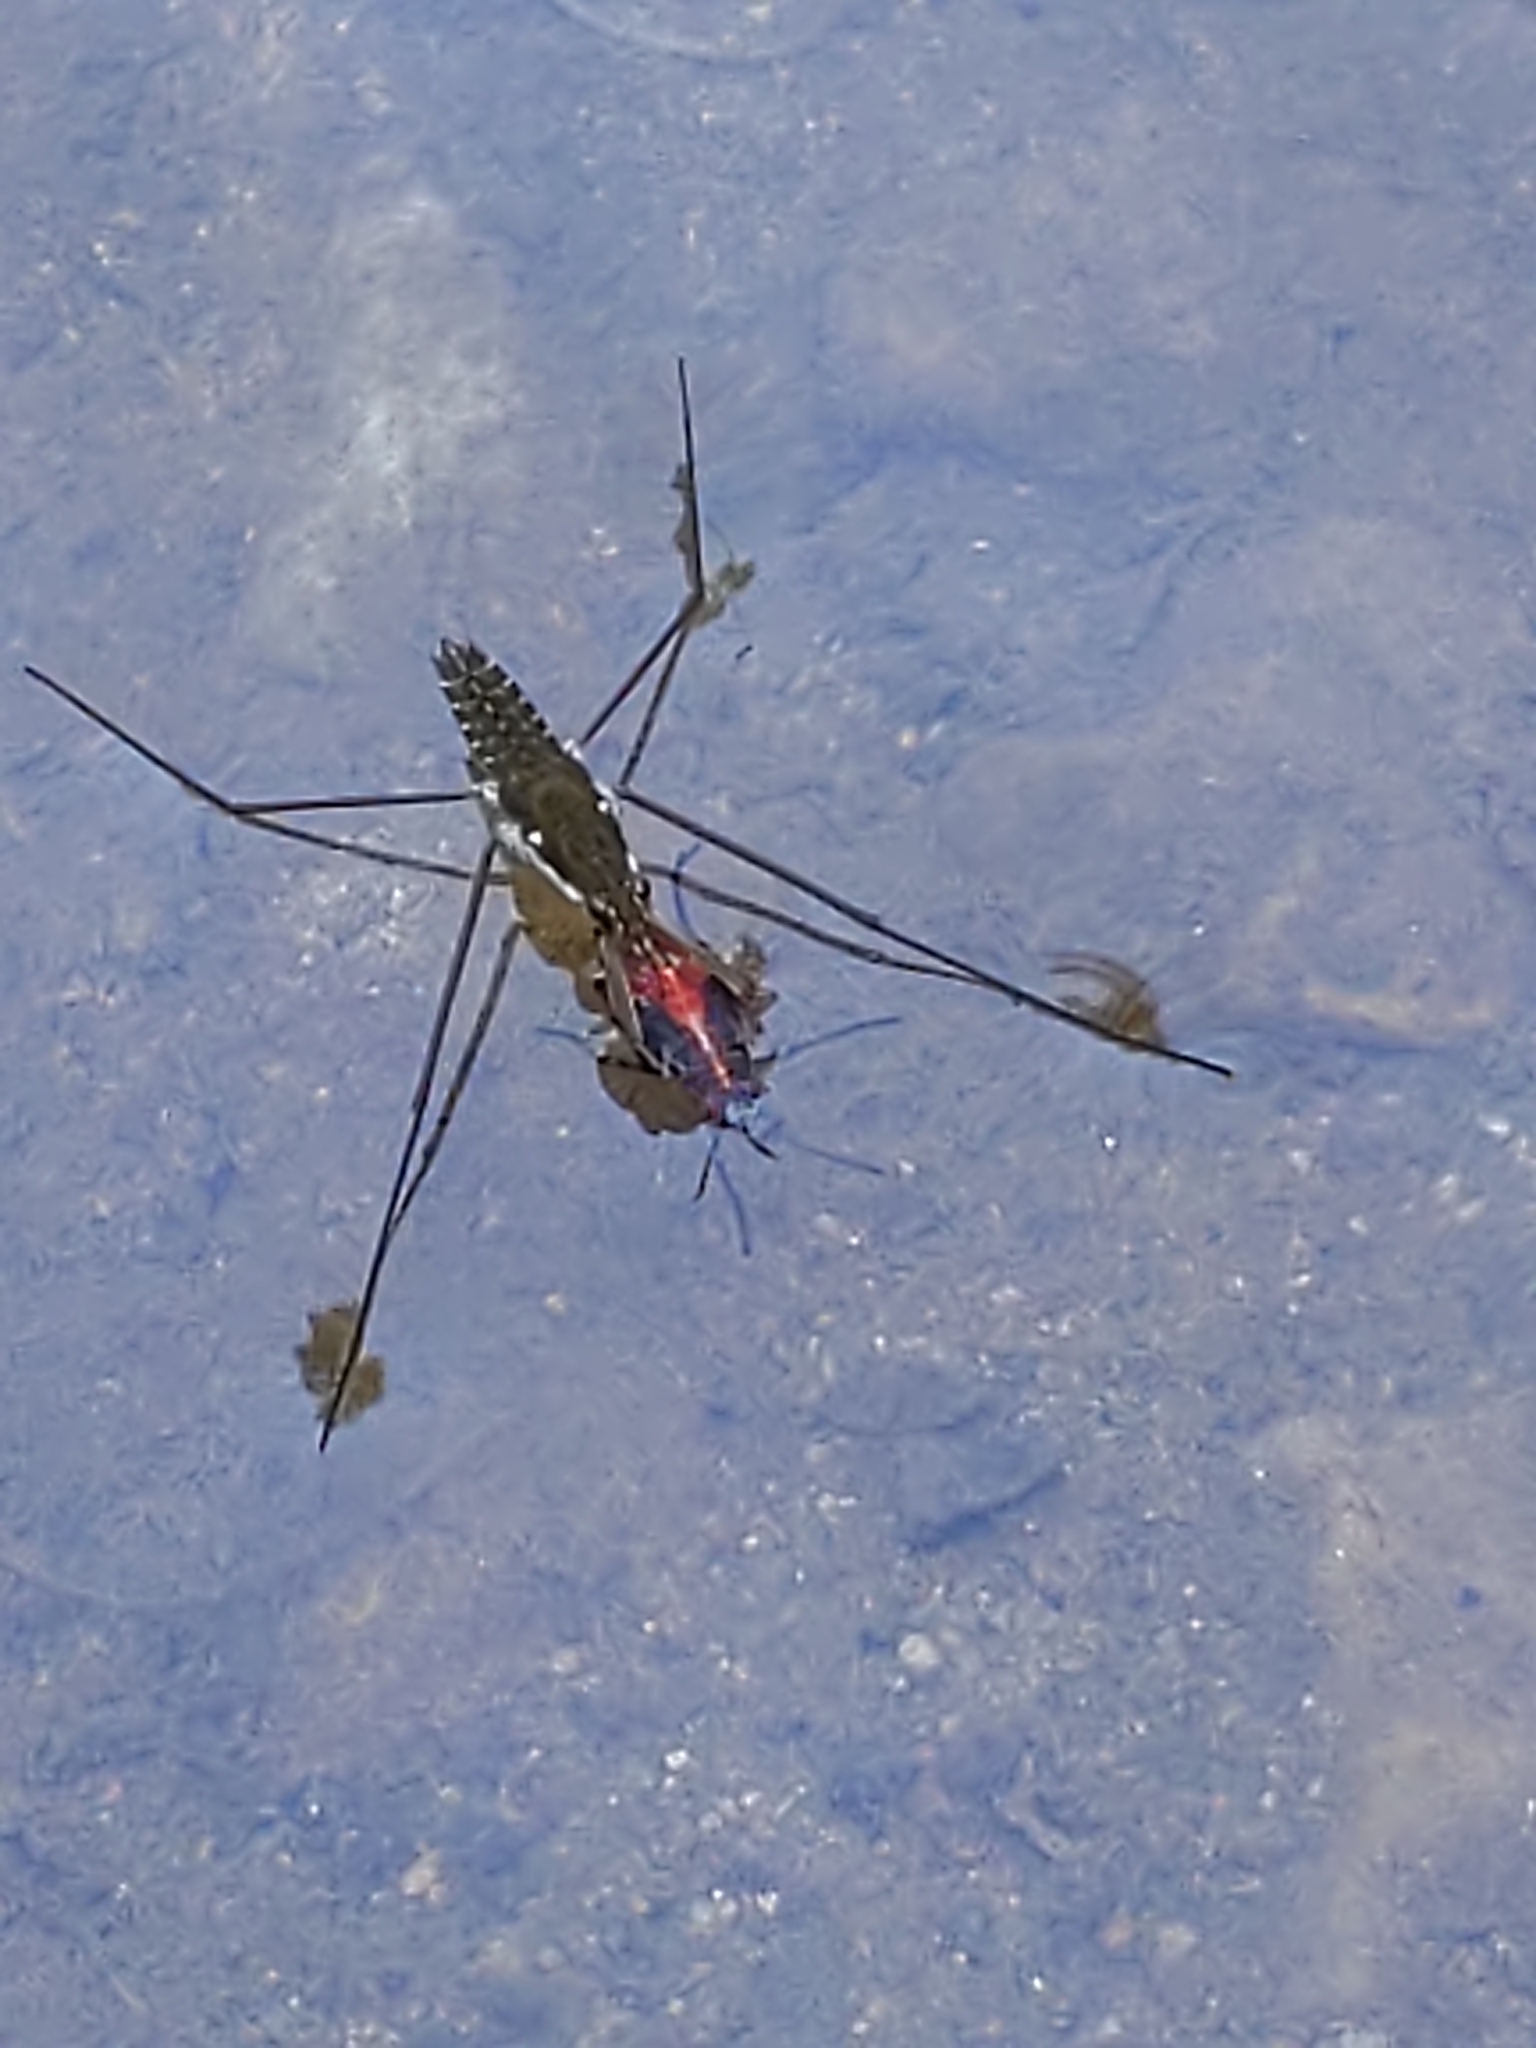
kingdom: Animalia
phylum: Arthropoda
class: Insecta
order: Hemiptera
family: Gerridae
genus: Aquarius
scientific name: Aquarius
